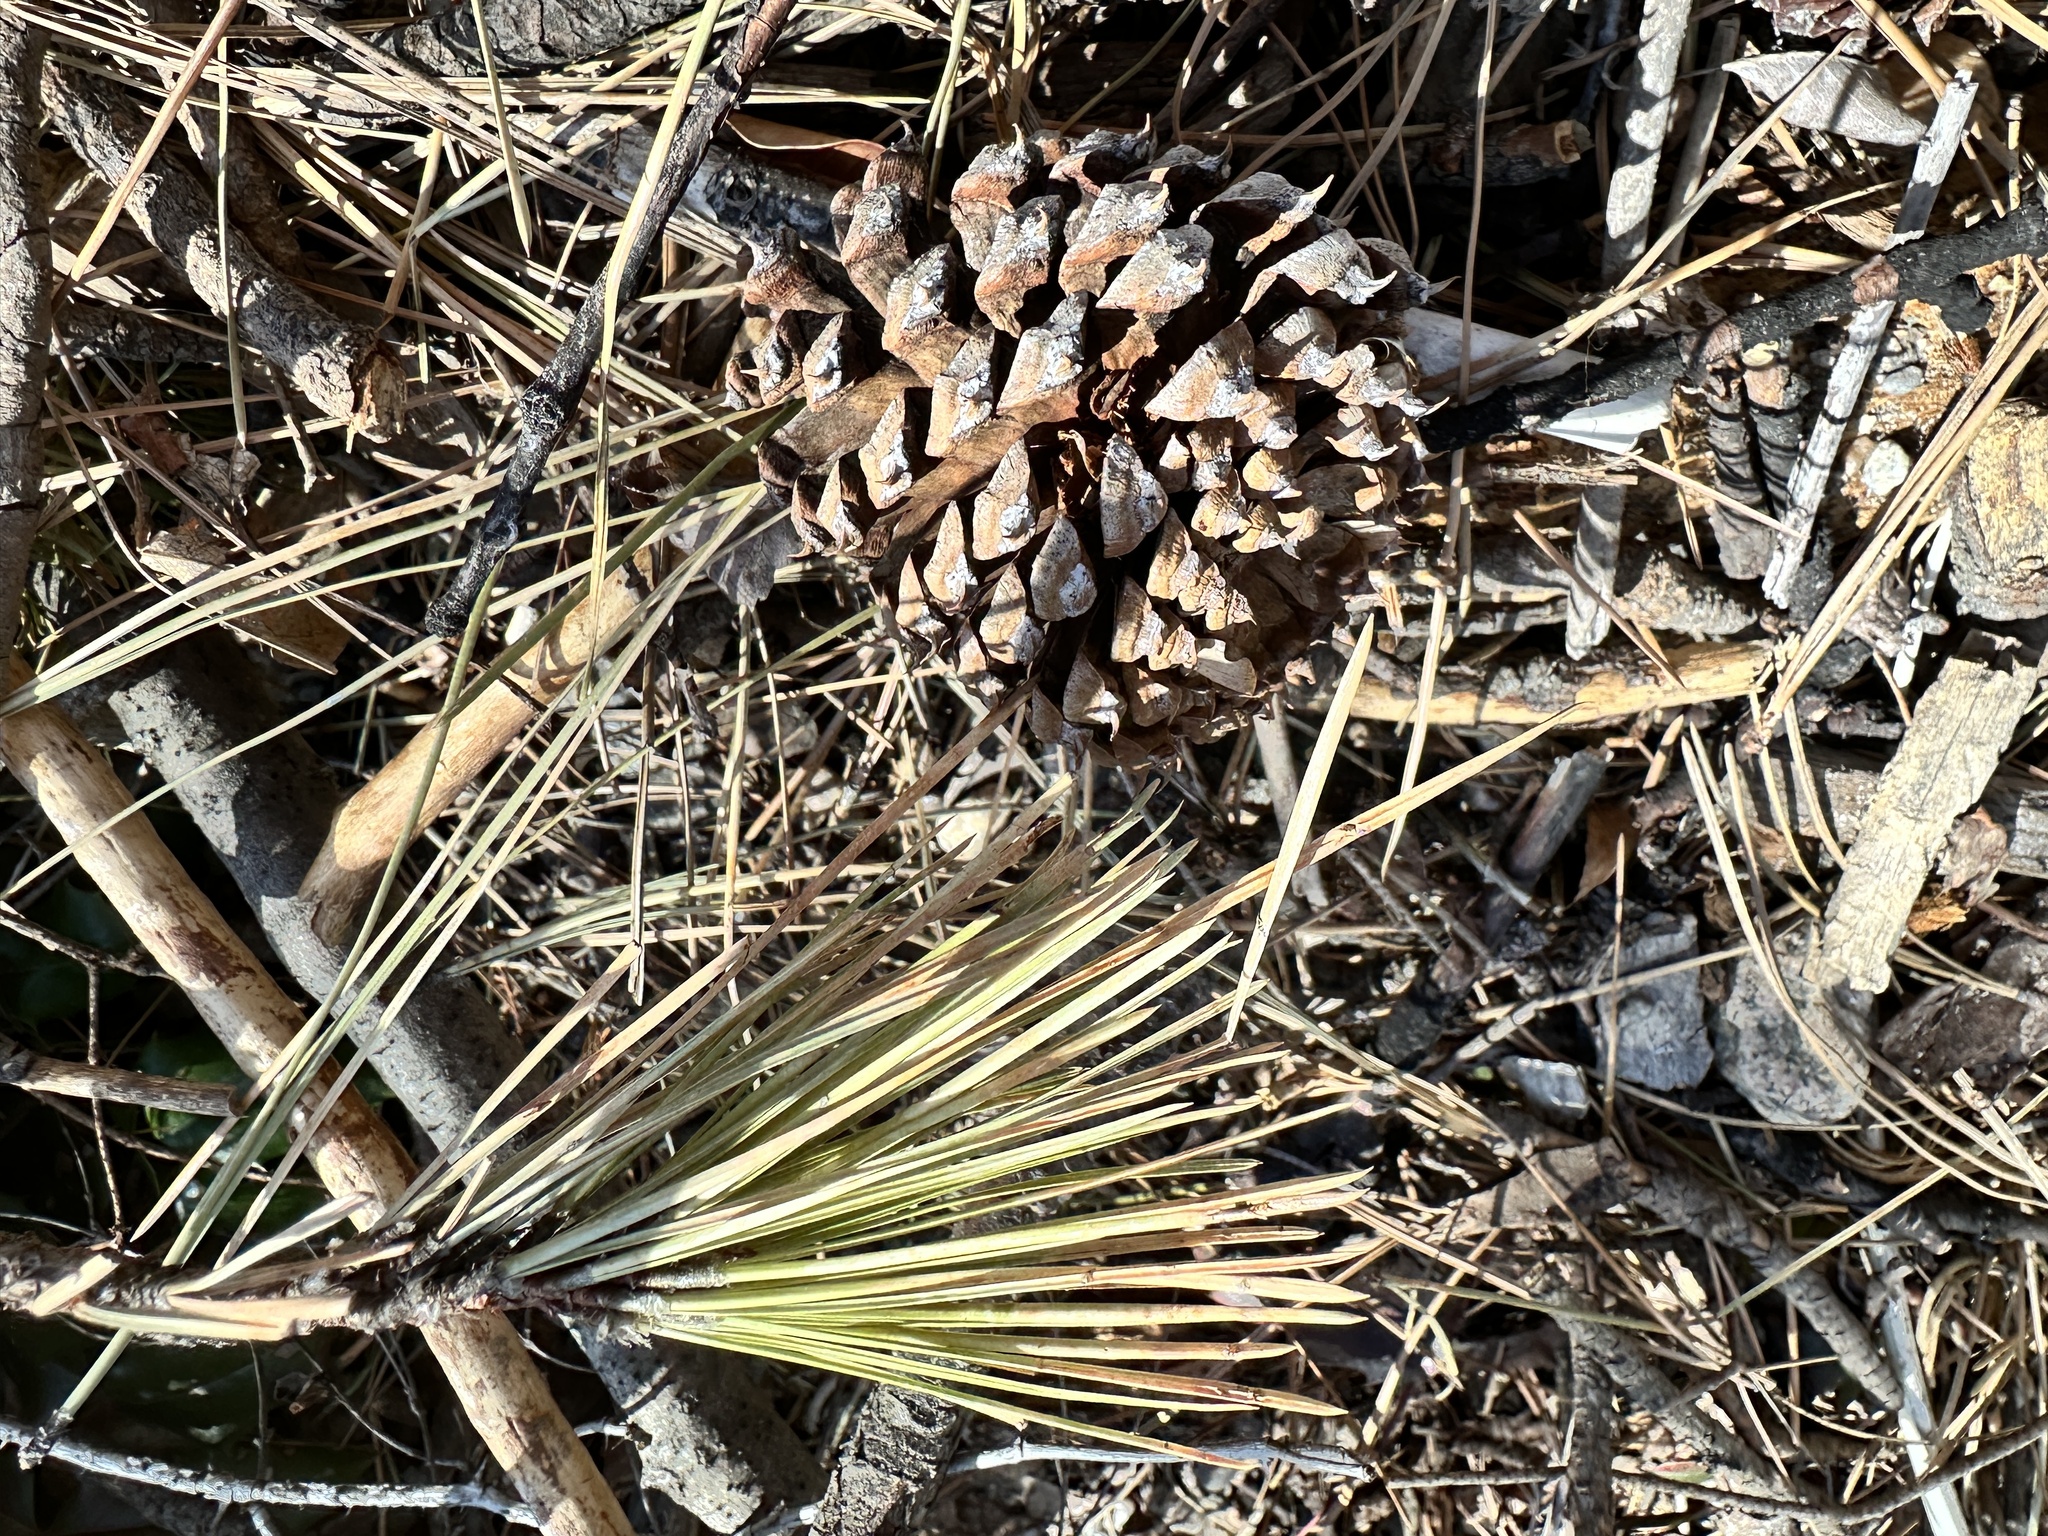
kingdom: Plantae
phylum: Tracheophyta
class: Pinopsida
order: Pinales
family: Pinaceae
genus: Pinus
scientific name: Pinus ponderosa
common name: Western yellow-pine
